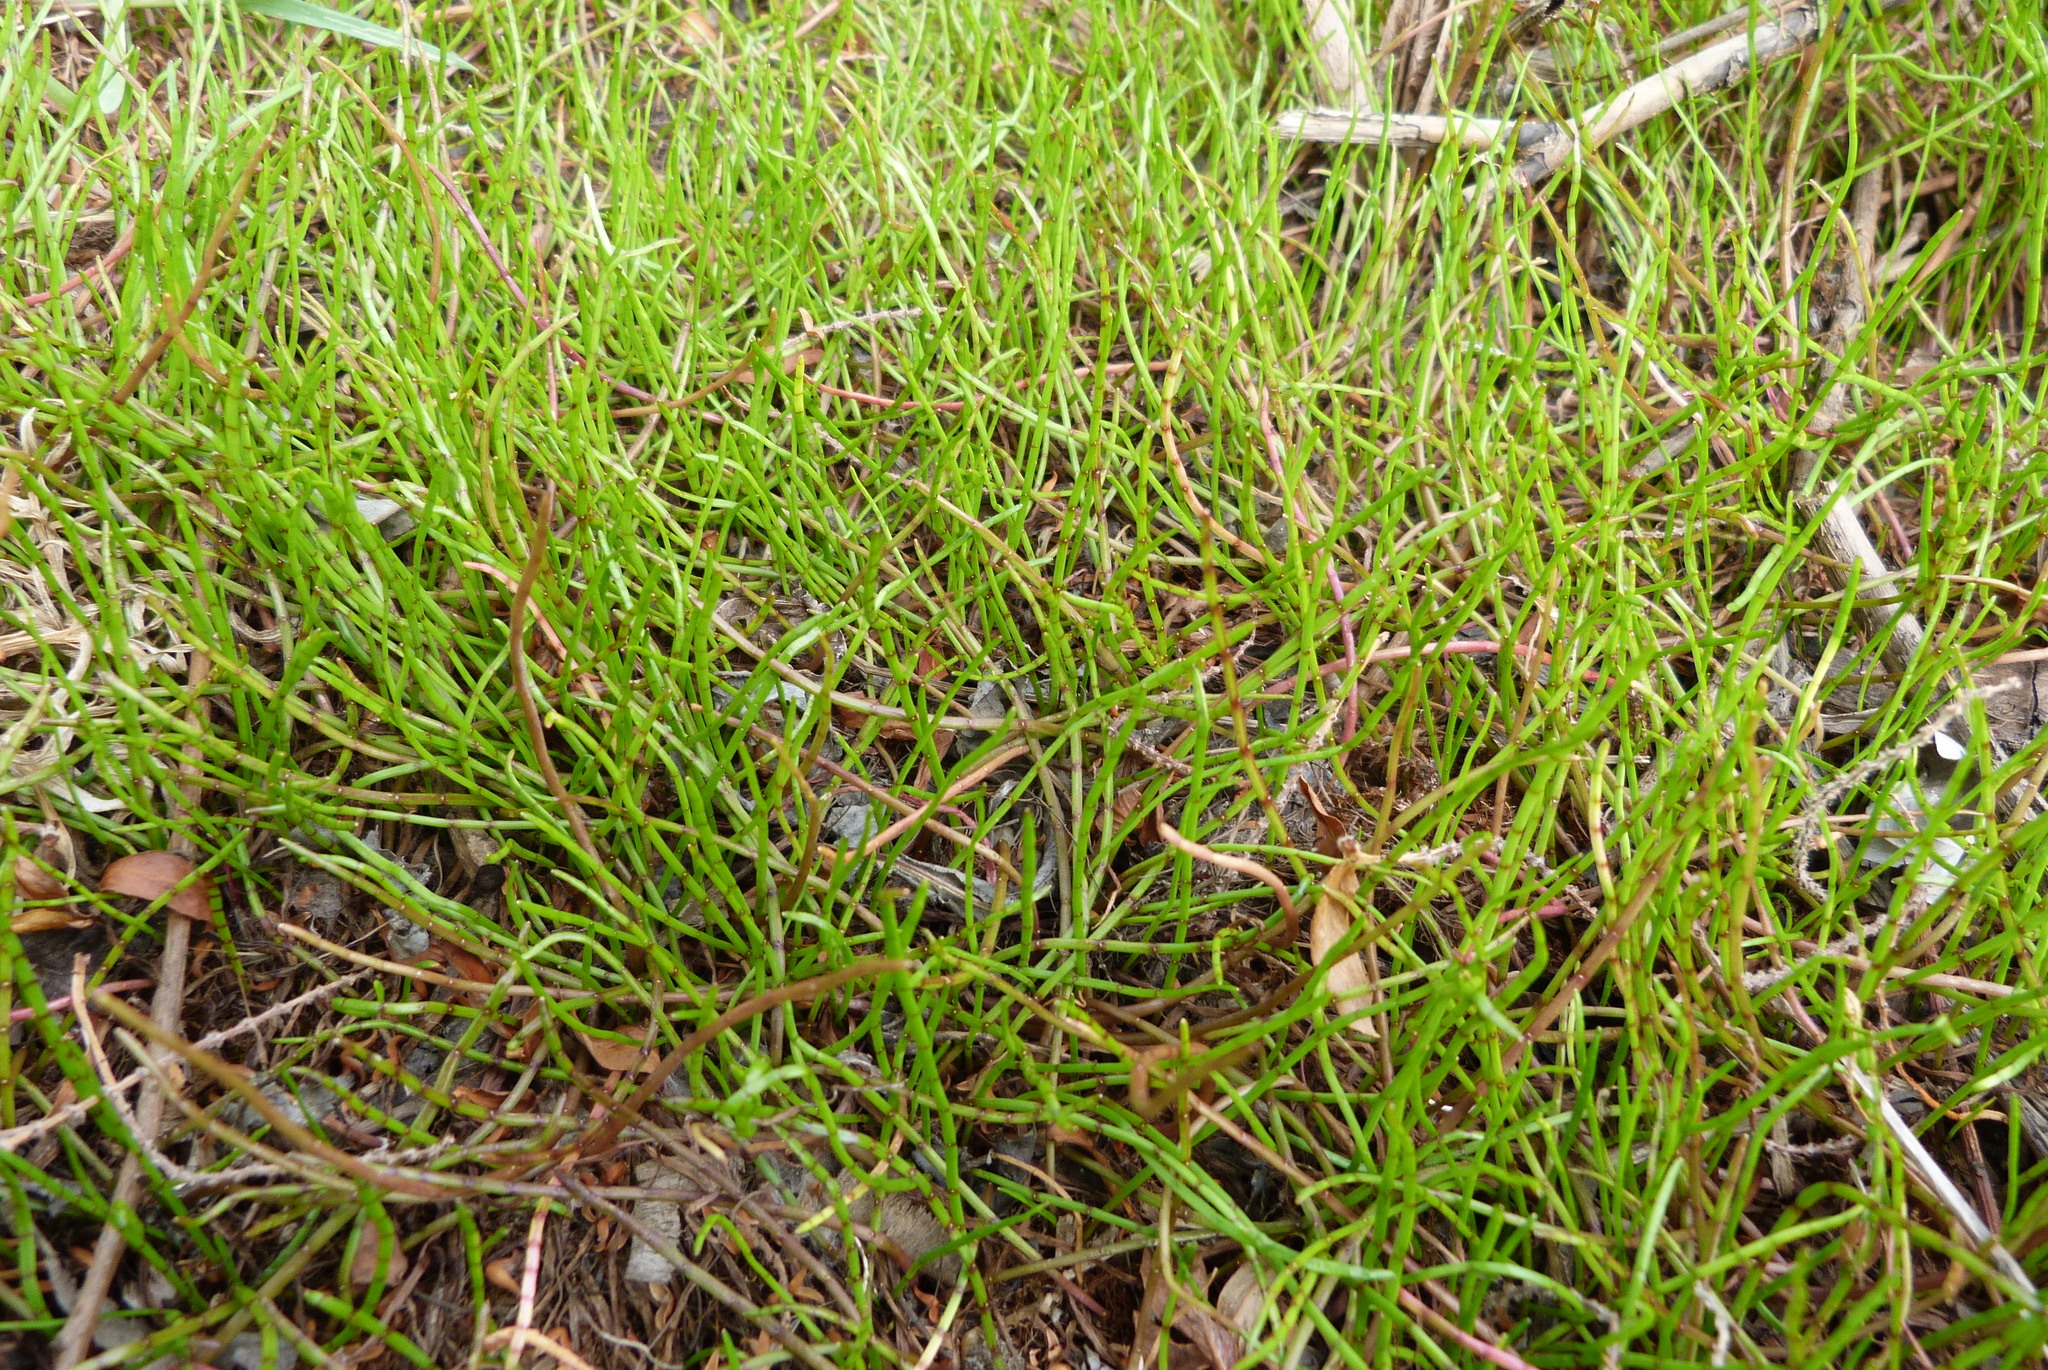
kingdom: Plantae
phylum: Tracheophyta
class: Magnoliopsida
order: Apiales
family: Apiaceae
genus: Lilaeopsis
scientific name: Lilaeopsis novae-zelandiae
